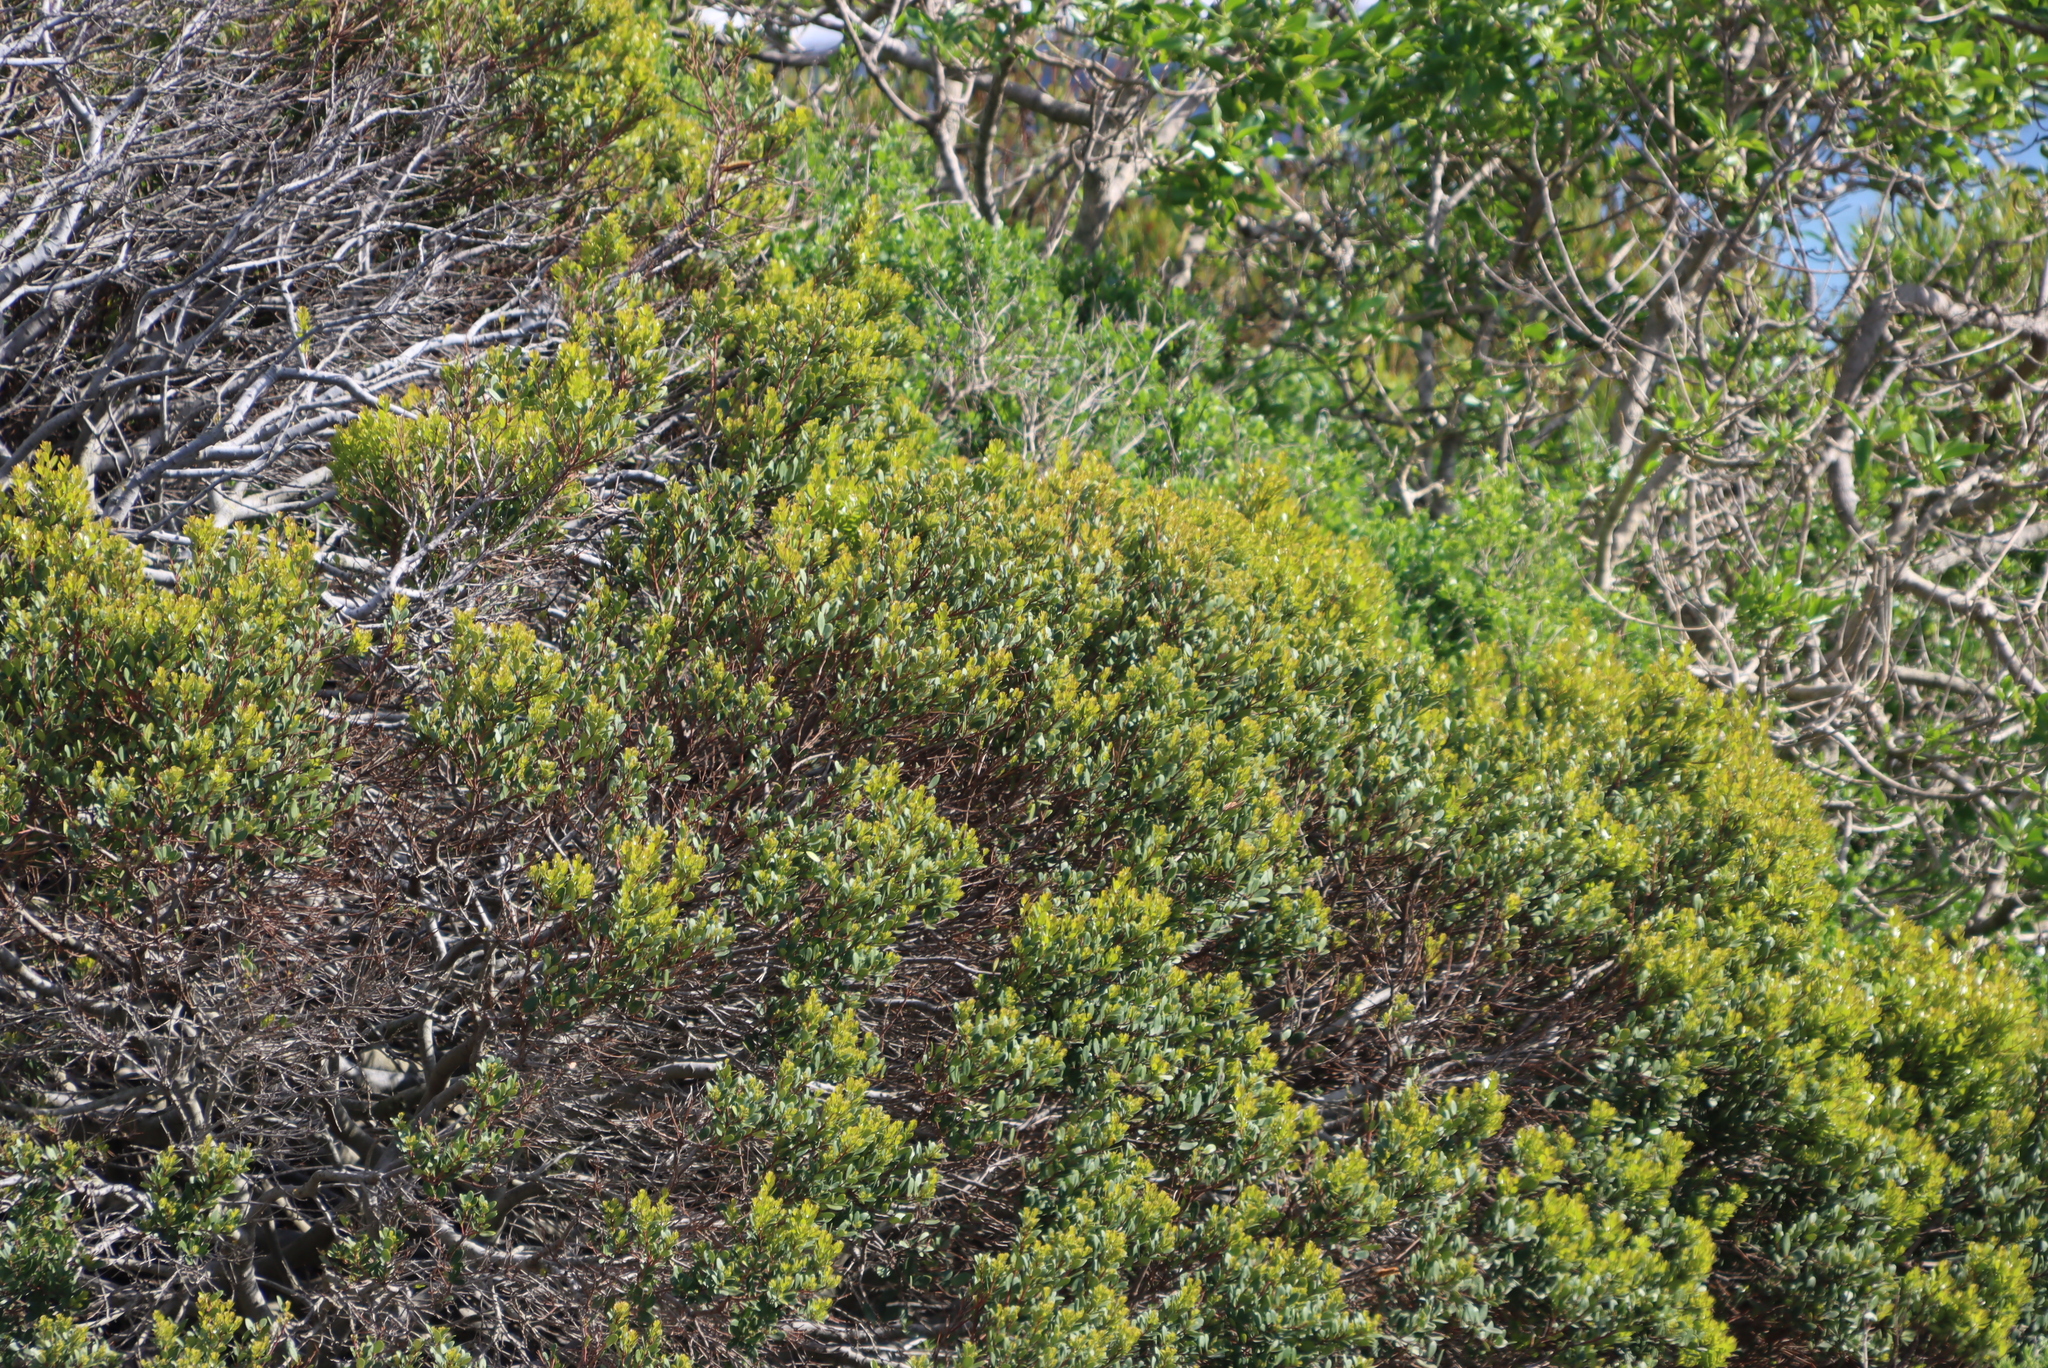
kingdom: Plantae
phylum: Tracheophyta
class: Magnoliopsida
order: Fabales
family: Fabaceae
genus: Acacia
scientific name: Acacia cyclops
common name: Coastal wattle
